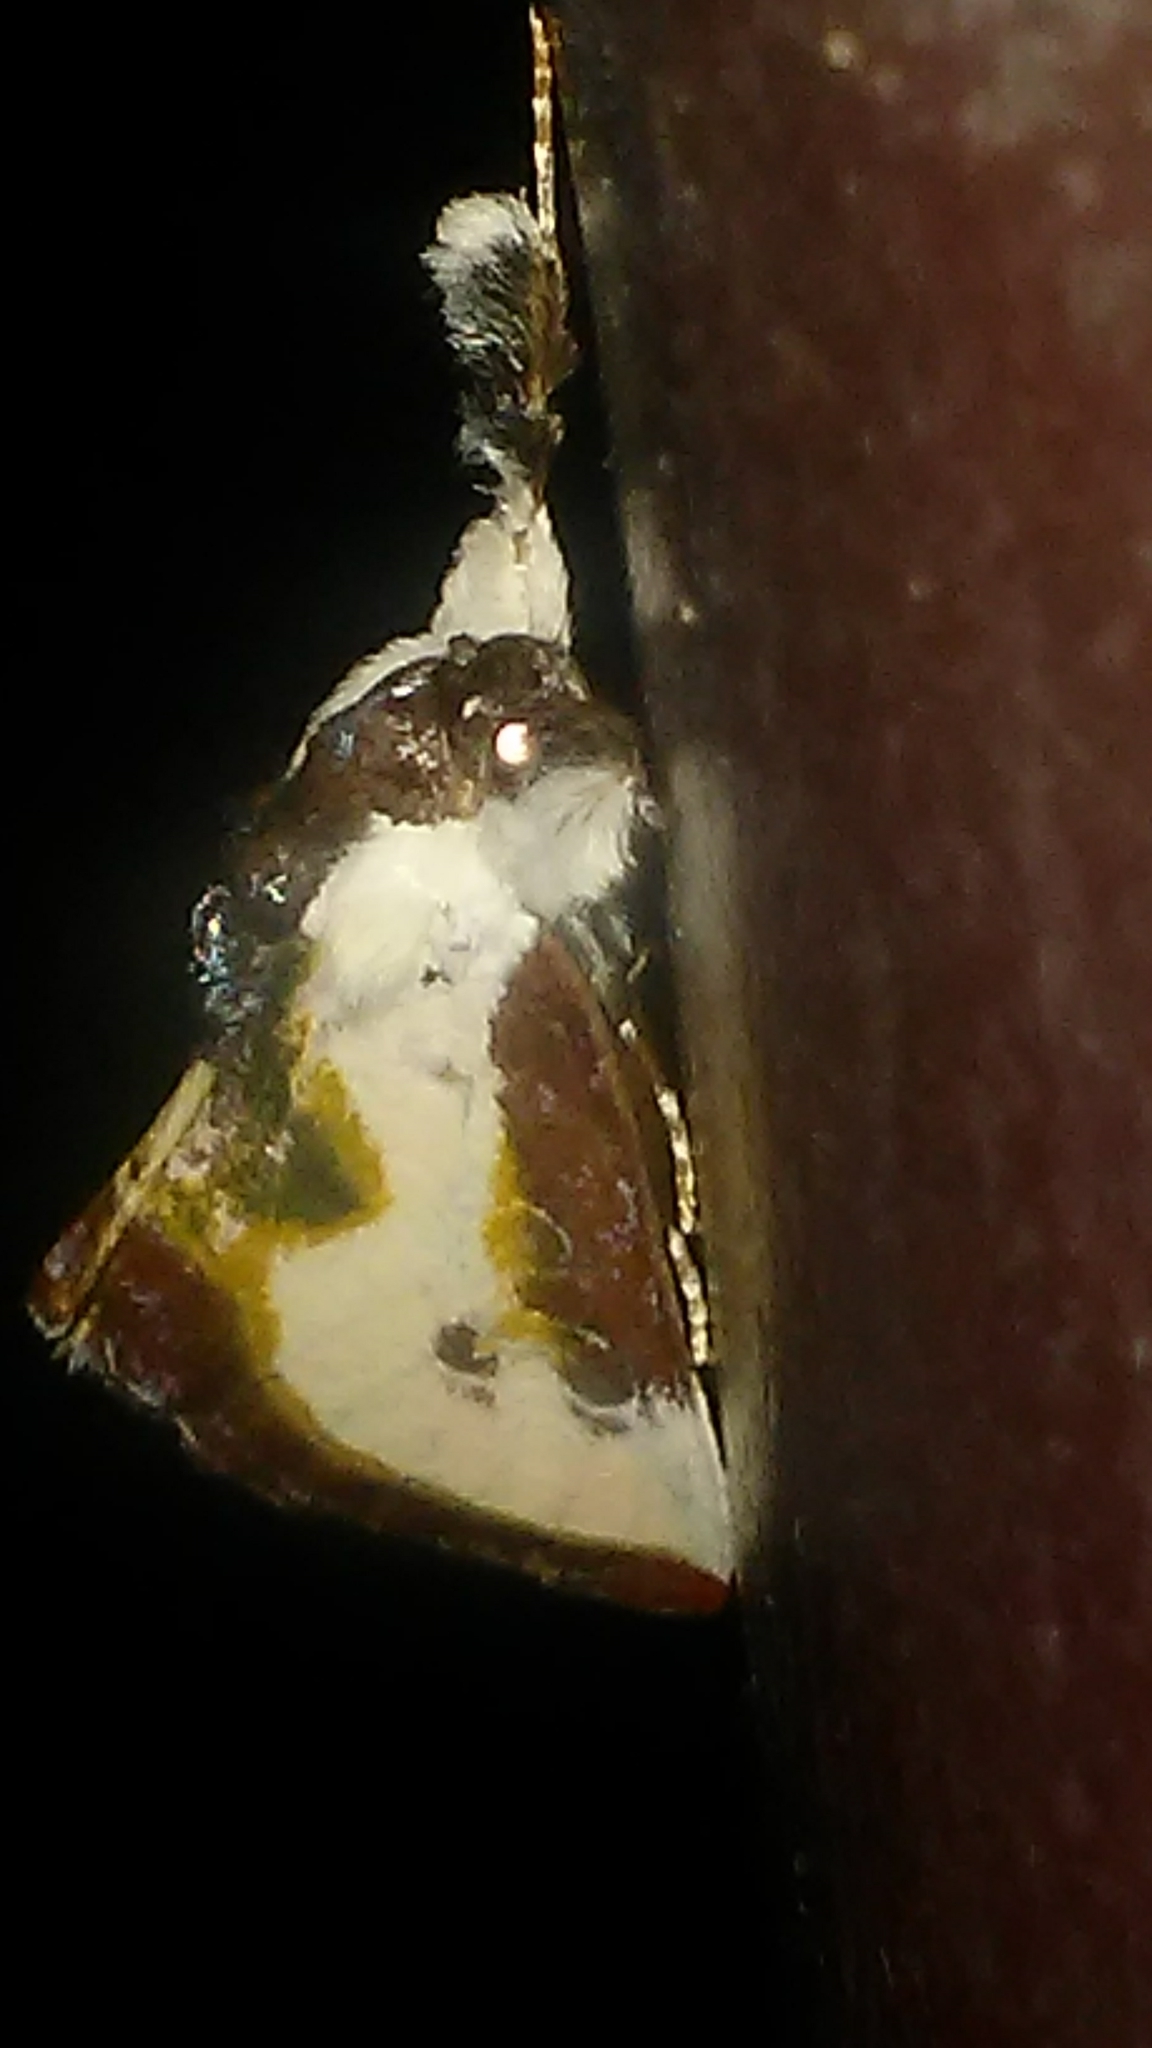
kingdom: Animalia
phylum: Arthropoda
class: Insecta
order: Lepidoptera
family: Noctuidae
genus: Eudryas
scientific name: Eudryas unio
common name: Pearly wood-nymph
